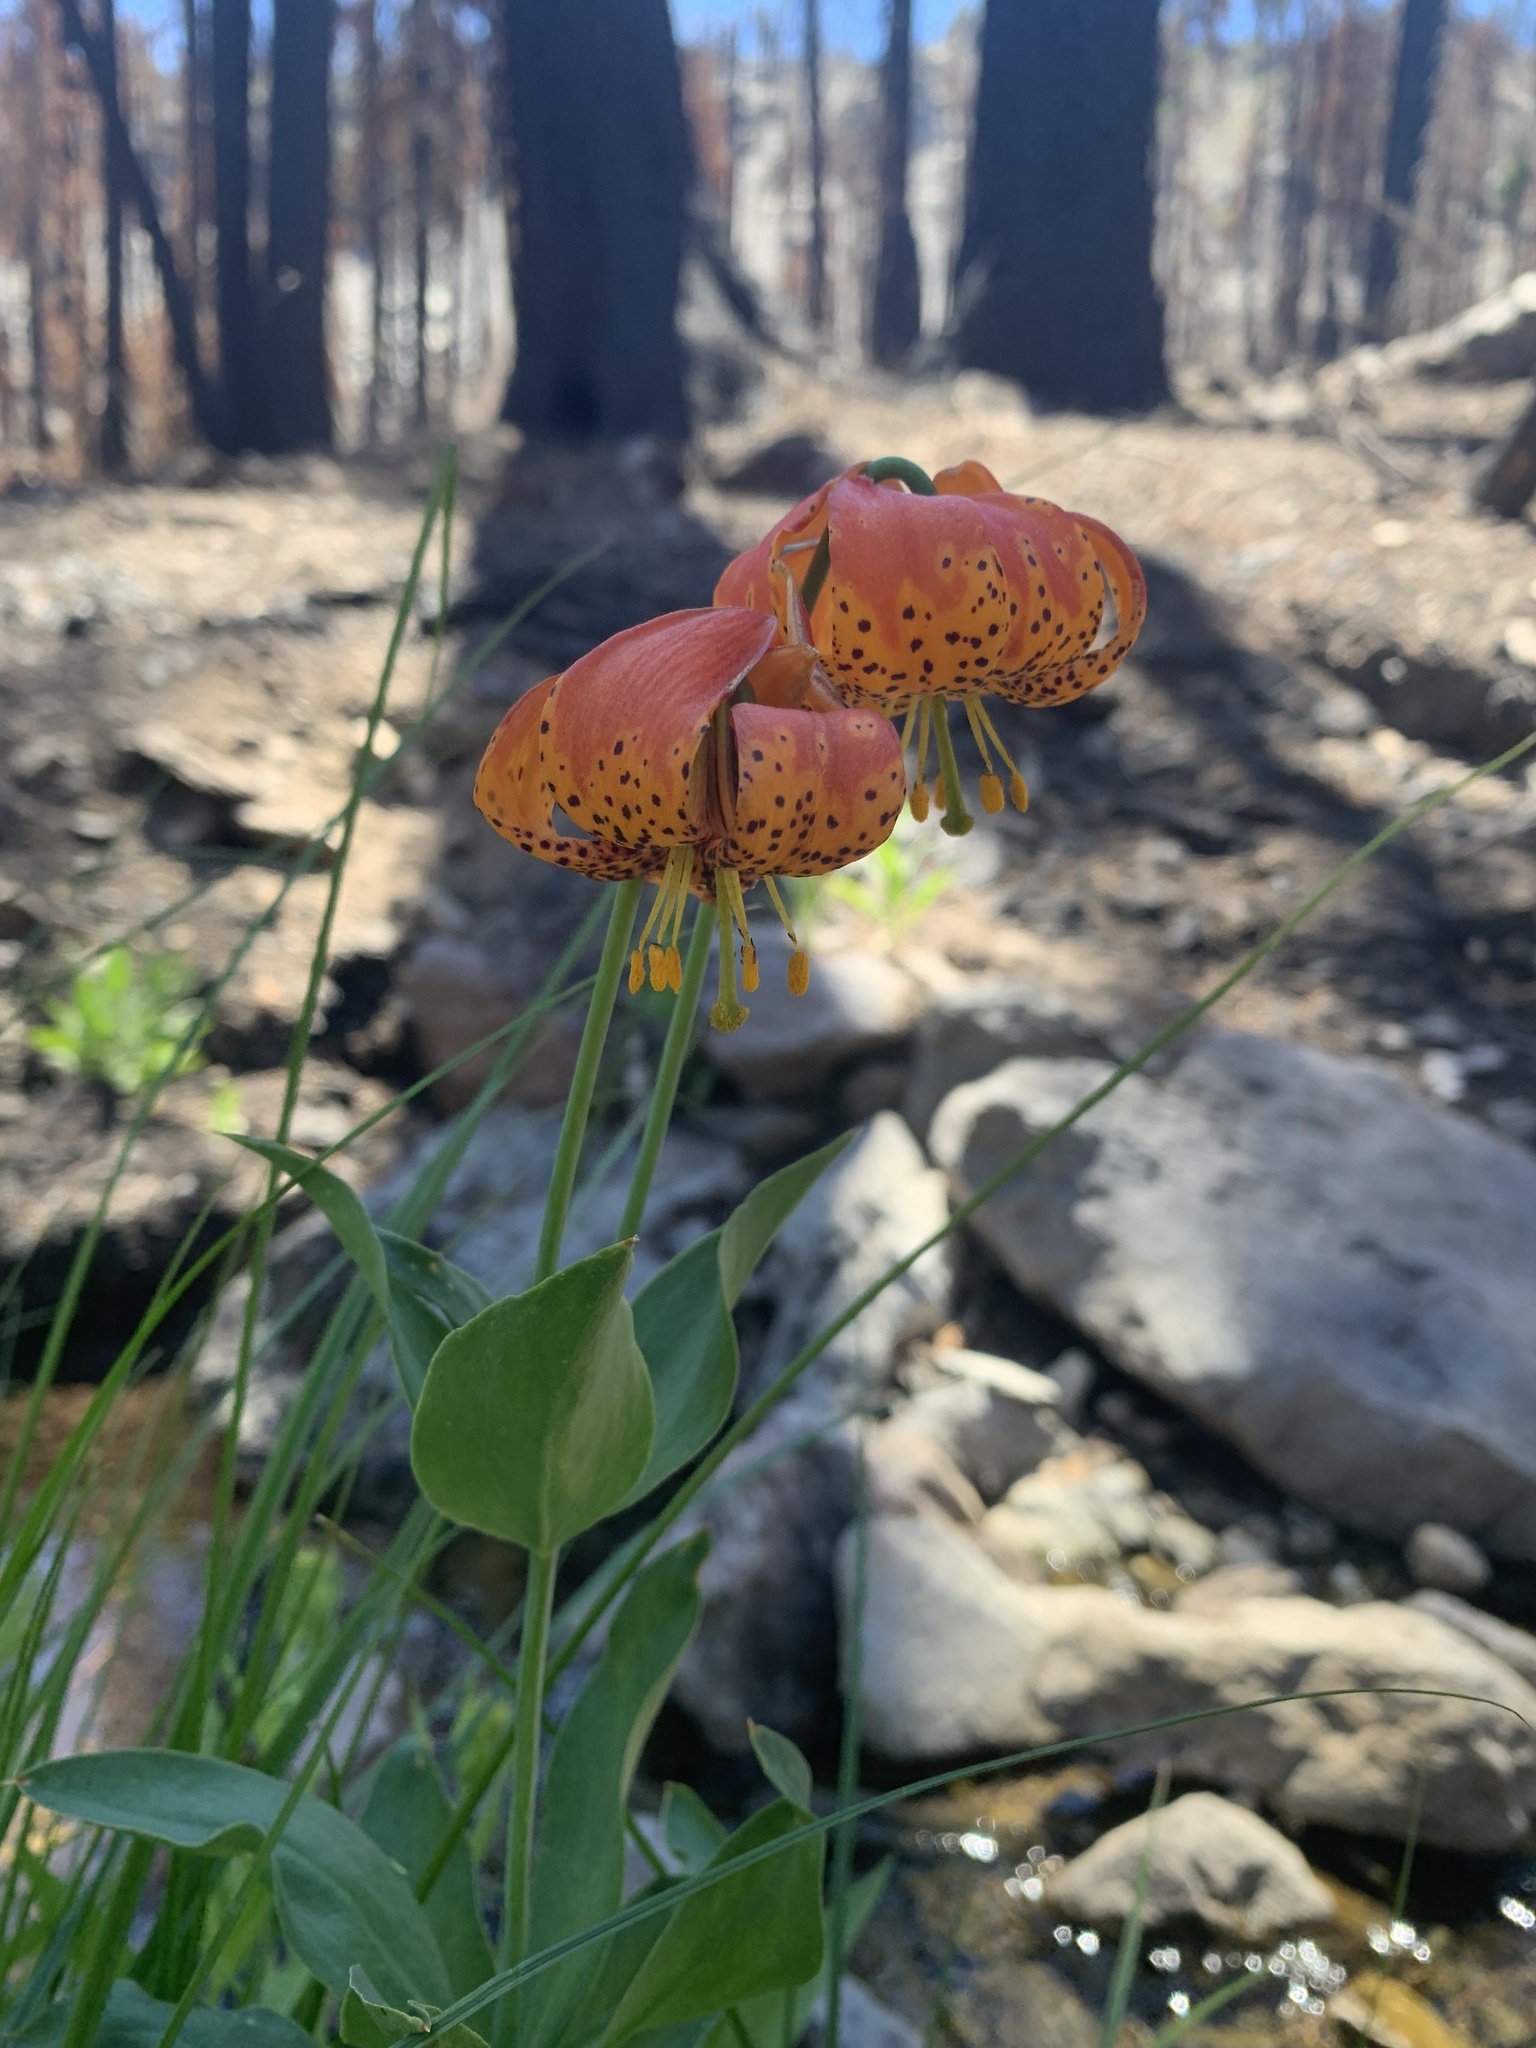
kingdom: Plantae
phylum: Tracheophyta
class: Liliopsida
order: Liliales
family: Liliaceae
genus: Lilium
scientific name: Lilium pardalinum
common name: Panther lily
